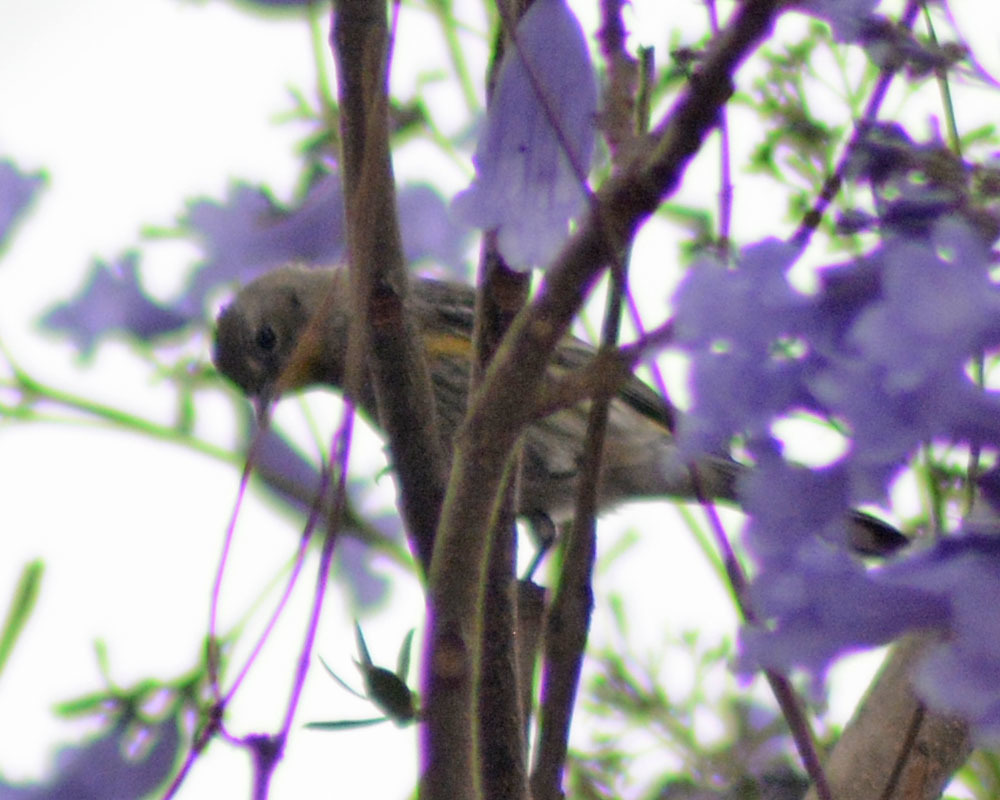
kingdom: Animalia
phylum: Chordata
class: Aves
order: Passeriformes
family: Parulidae
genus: Setophaga
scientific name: Setophaga auduboni
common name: Audubon's warbler
